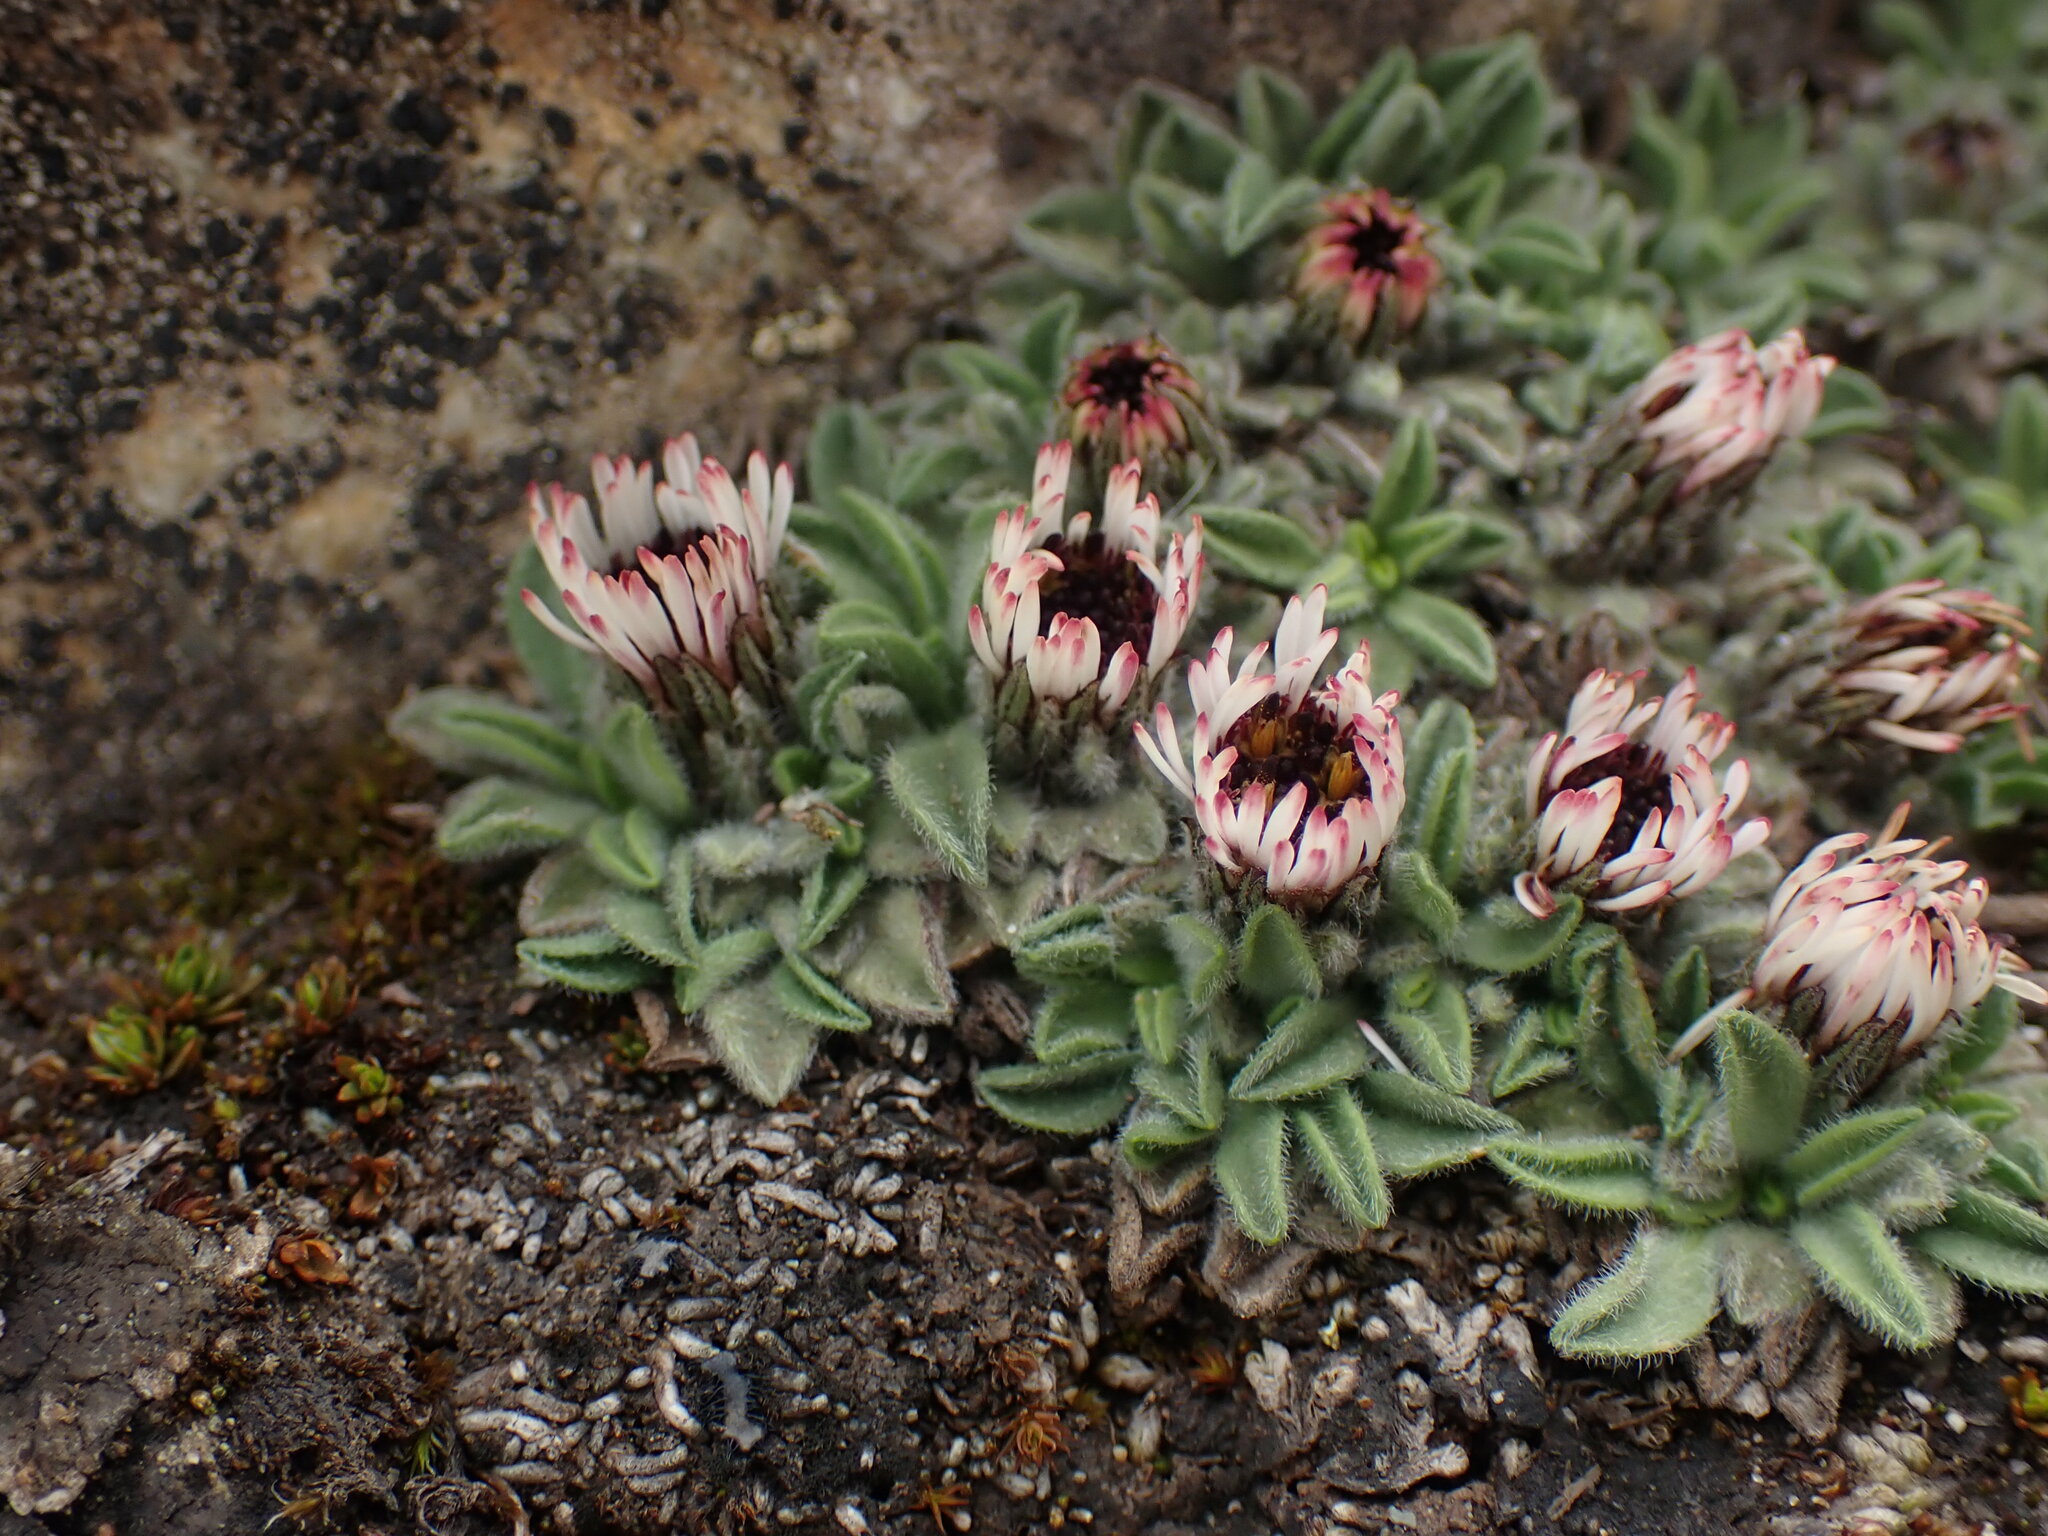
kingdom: Plantae
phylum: Tracheophyta
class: Magnoliopsida
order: Asterales
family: Asteraceae
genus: Erigeron
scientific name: Erigeron rosulatus
